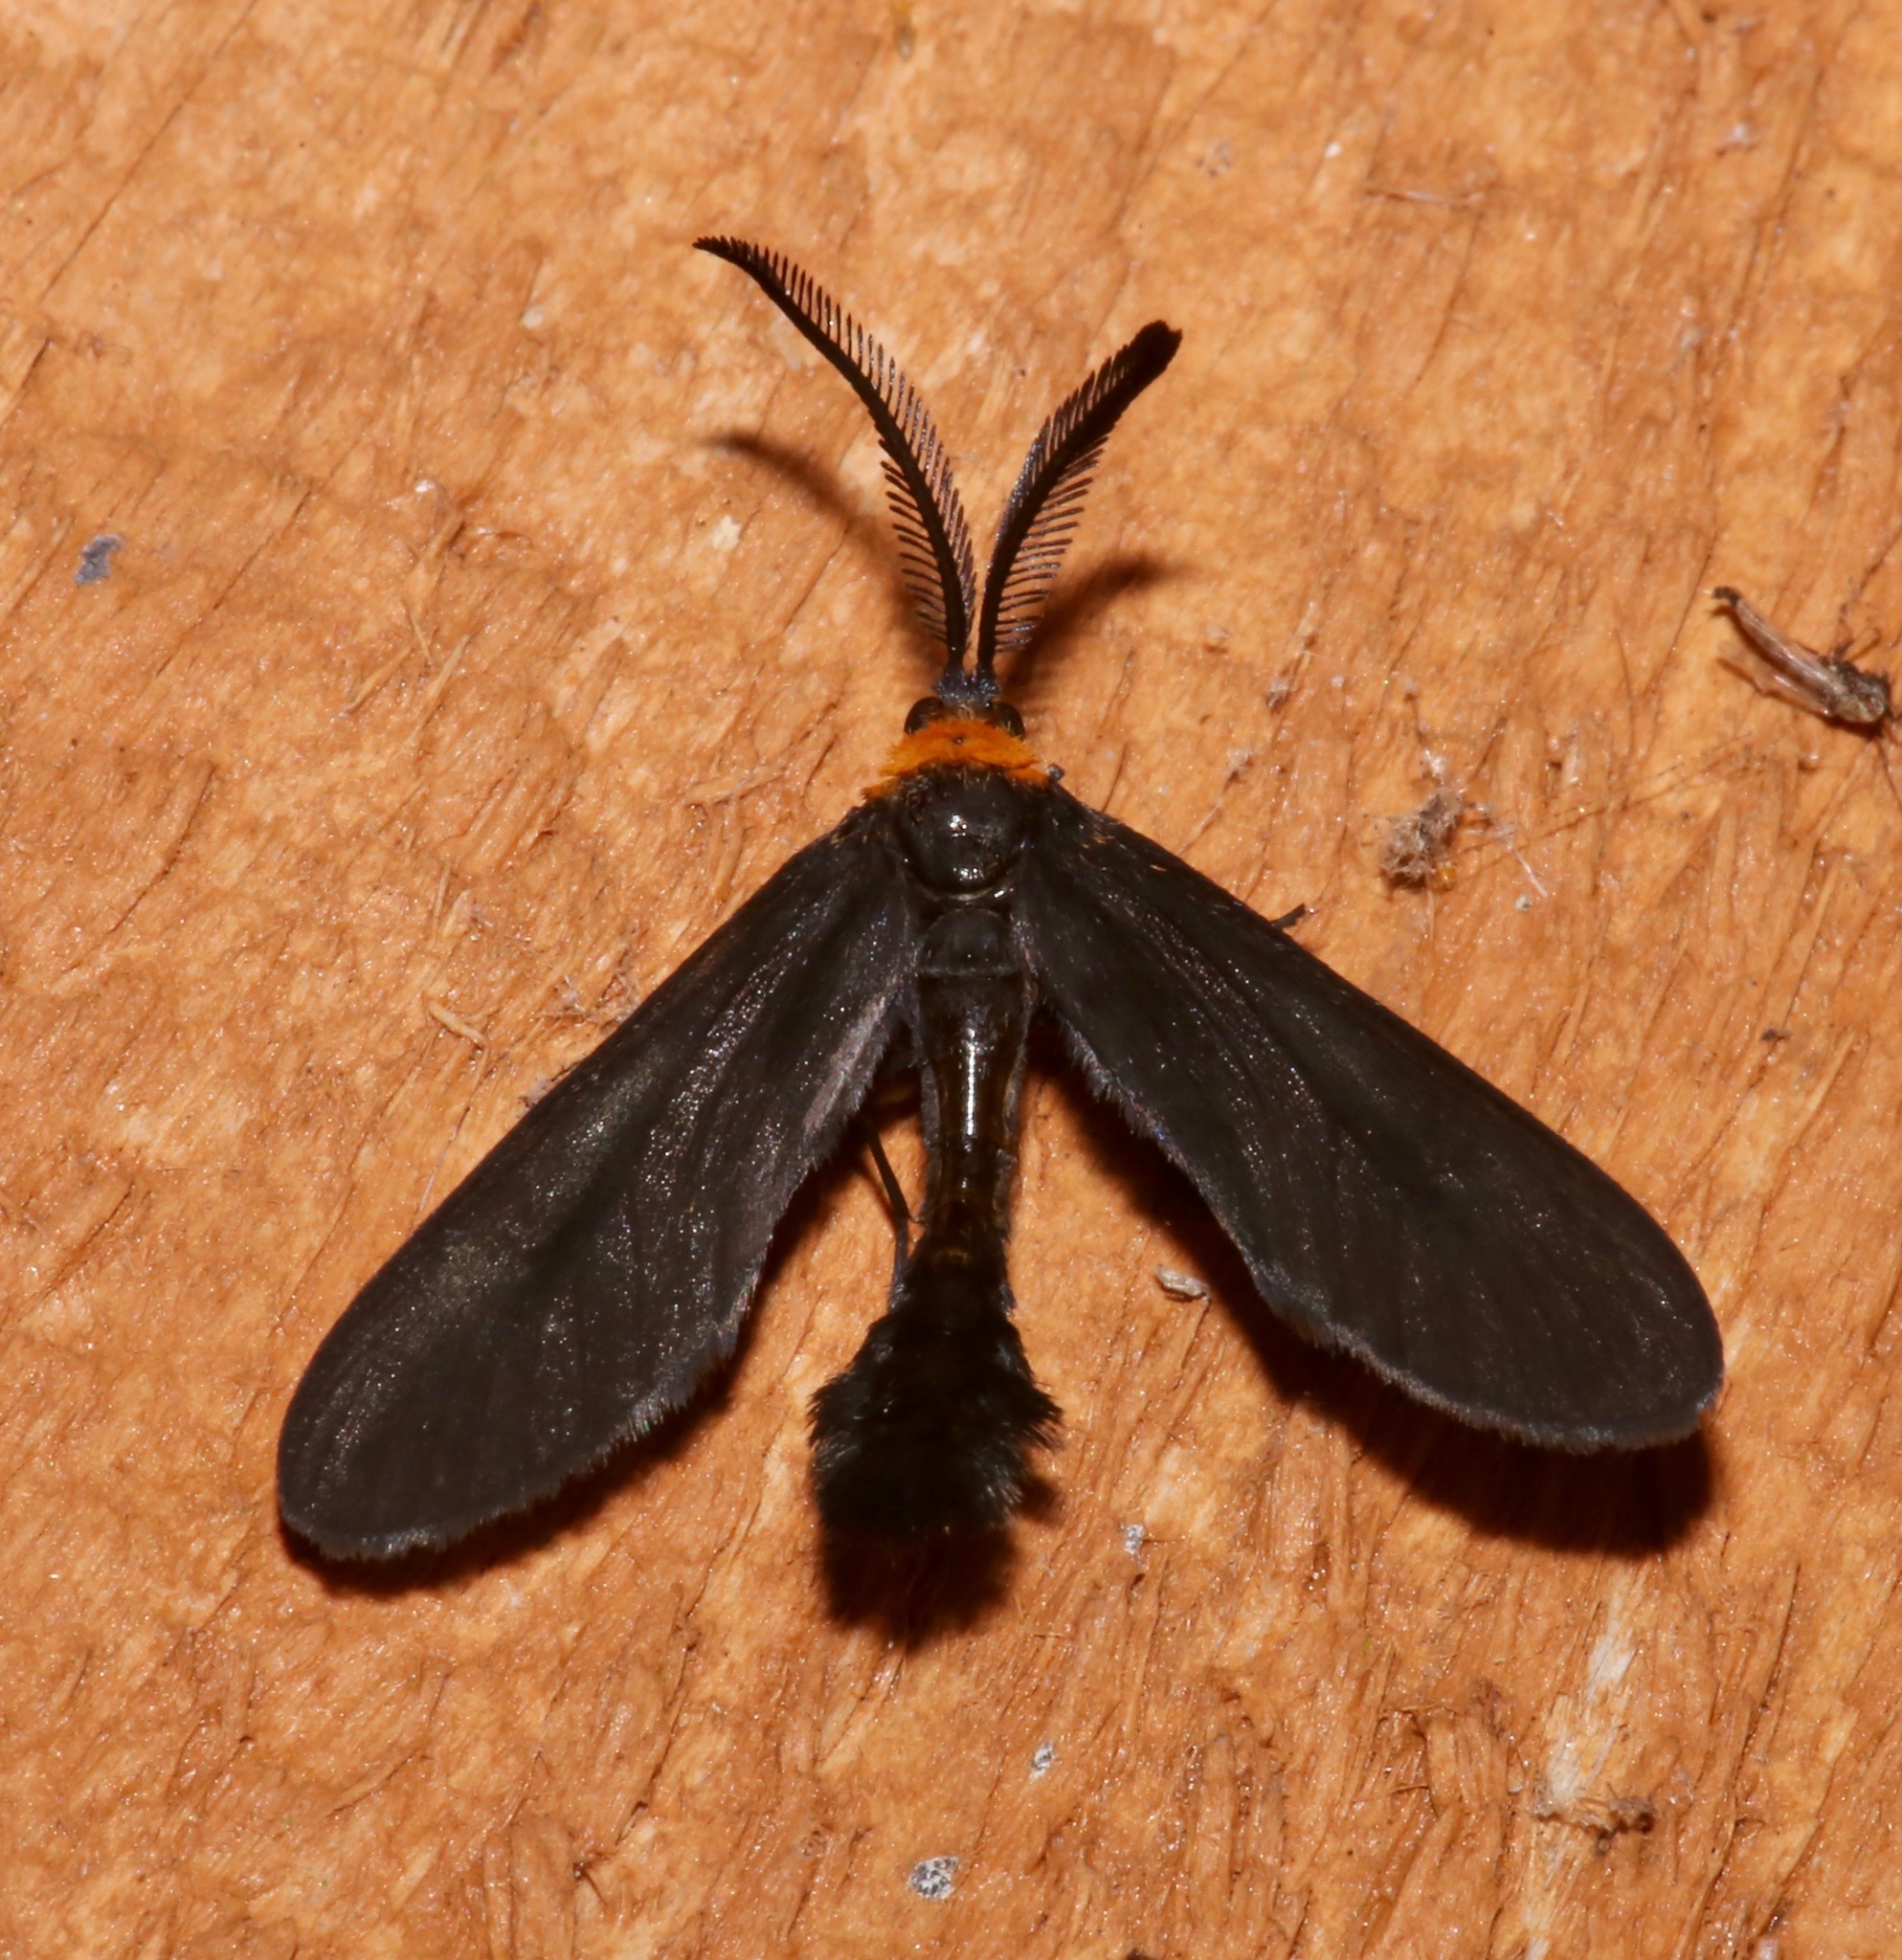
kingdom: Animalia
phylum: Arthropoda
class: Insecta
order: Lepidoptera
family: Zygaenidae
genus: Harrisina
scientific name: Harrisina americana
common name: Grapeleaf skeletonizer moth
